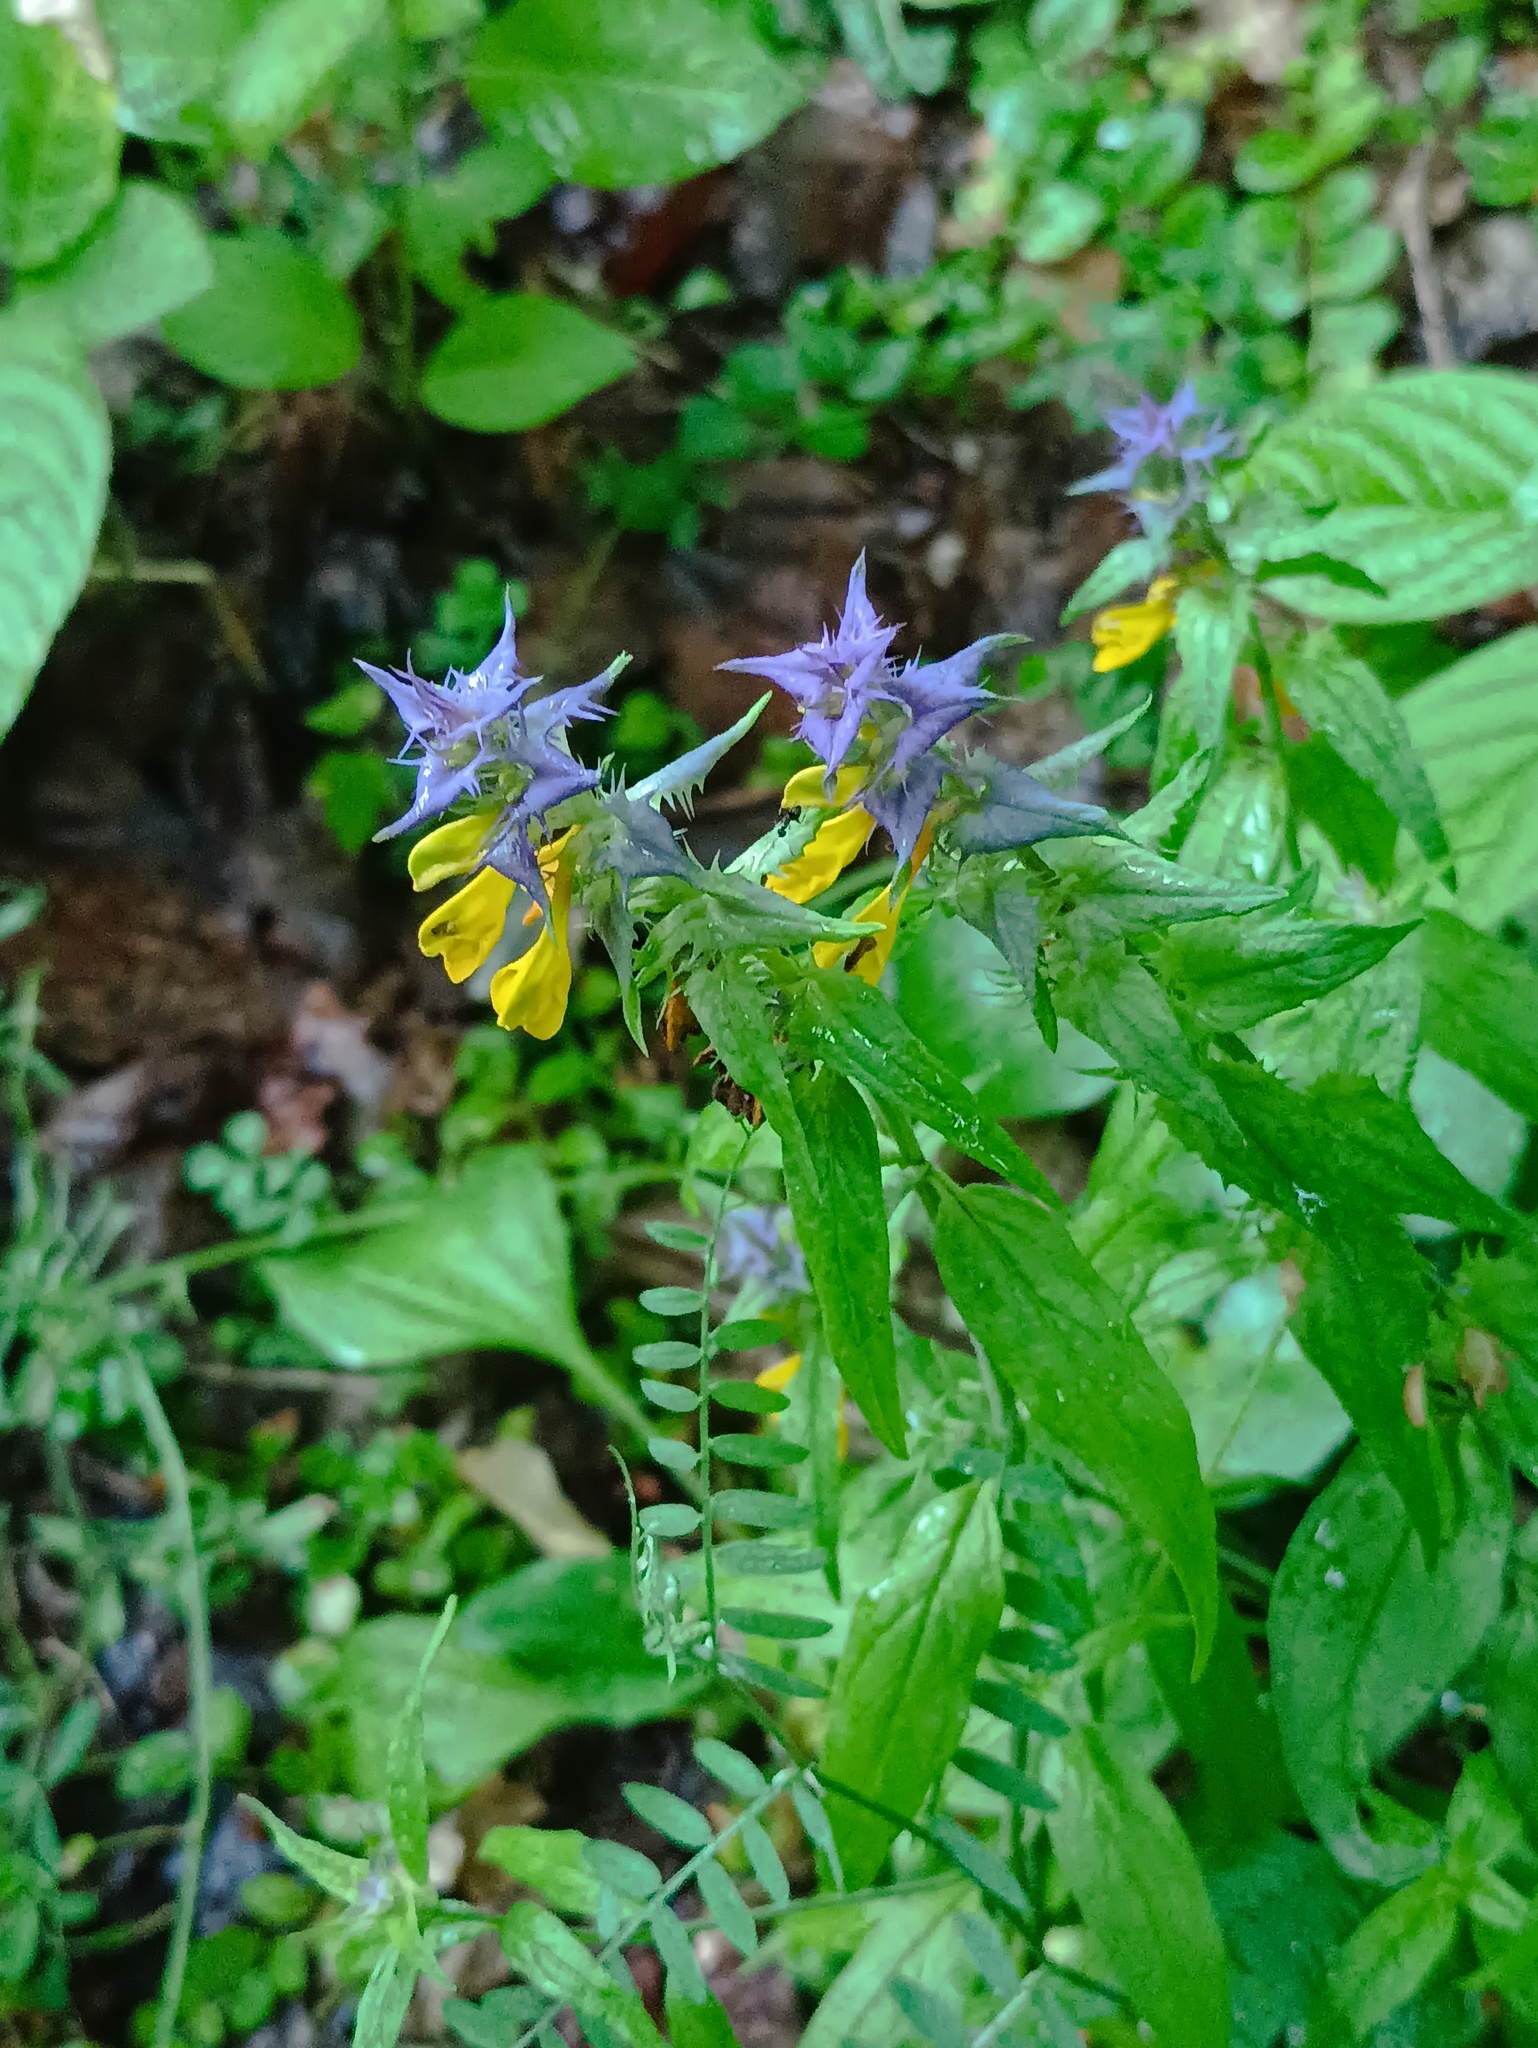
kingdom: Plantae
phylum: Tracheophyta
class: Magnoliopsida
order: Lamiales
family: Orobanchaceae
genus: Melampyrum
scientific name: Melampyrum nemorosum
